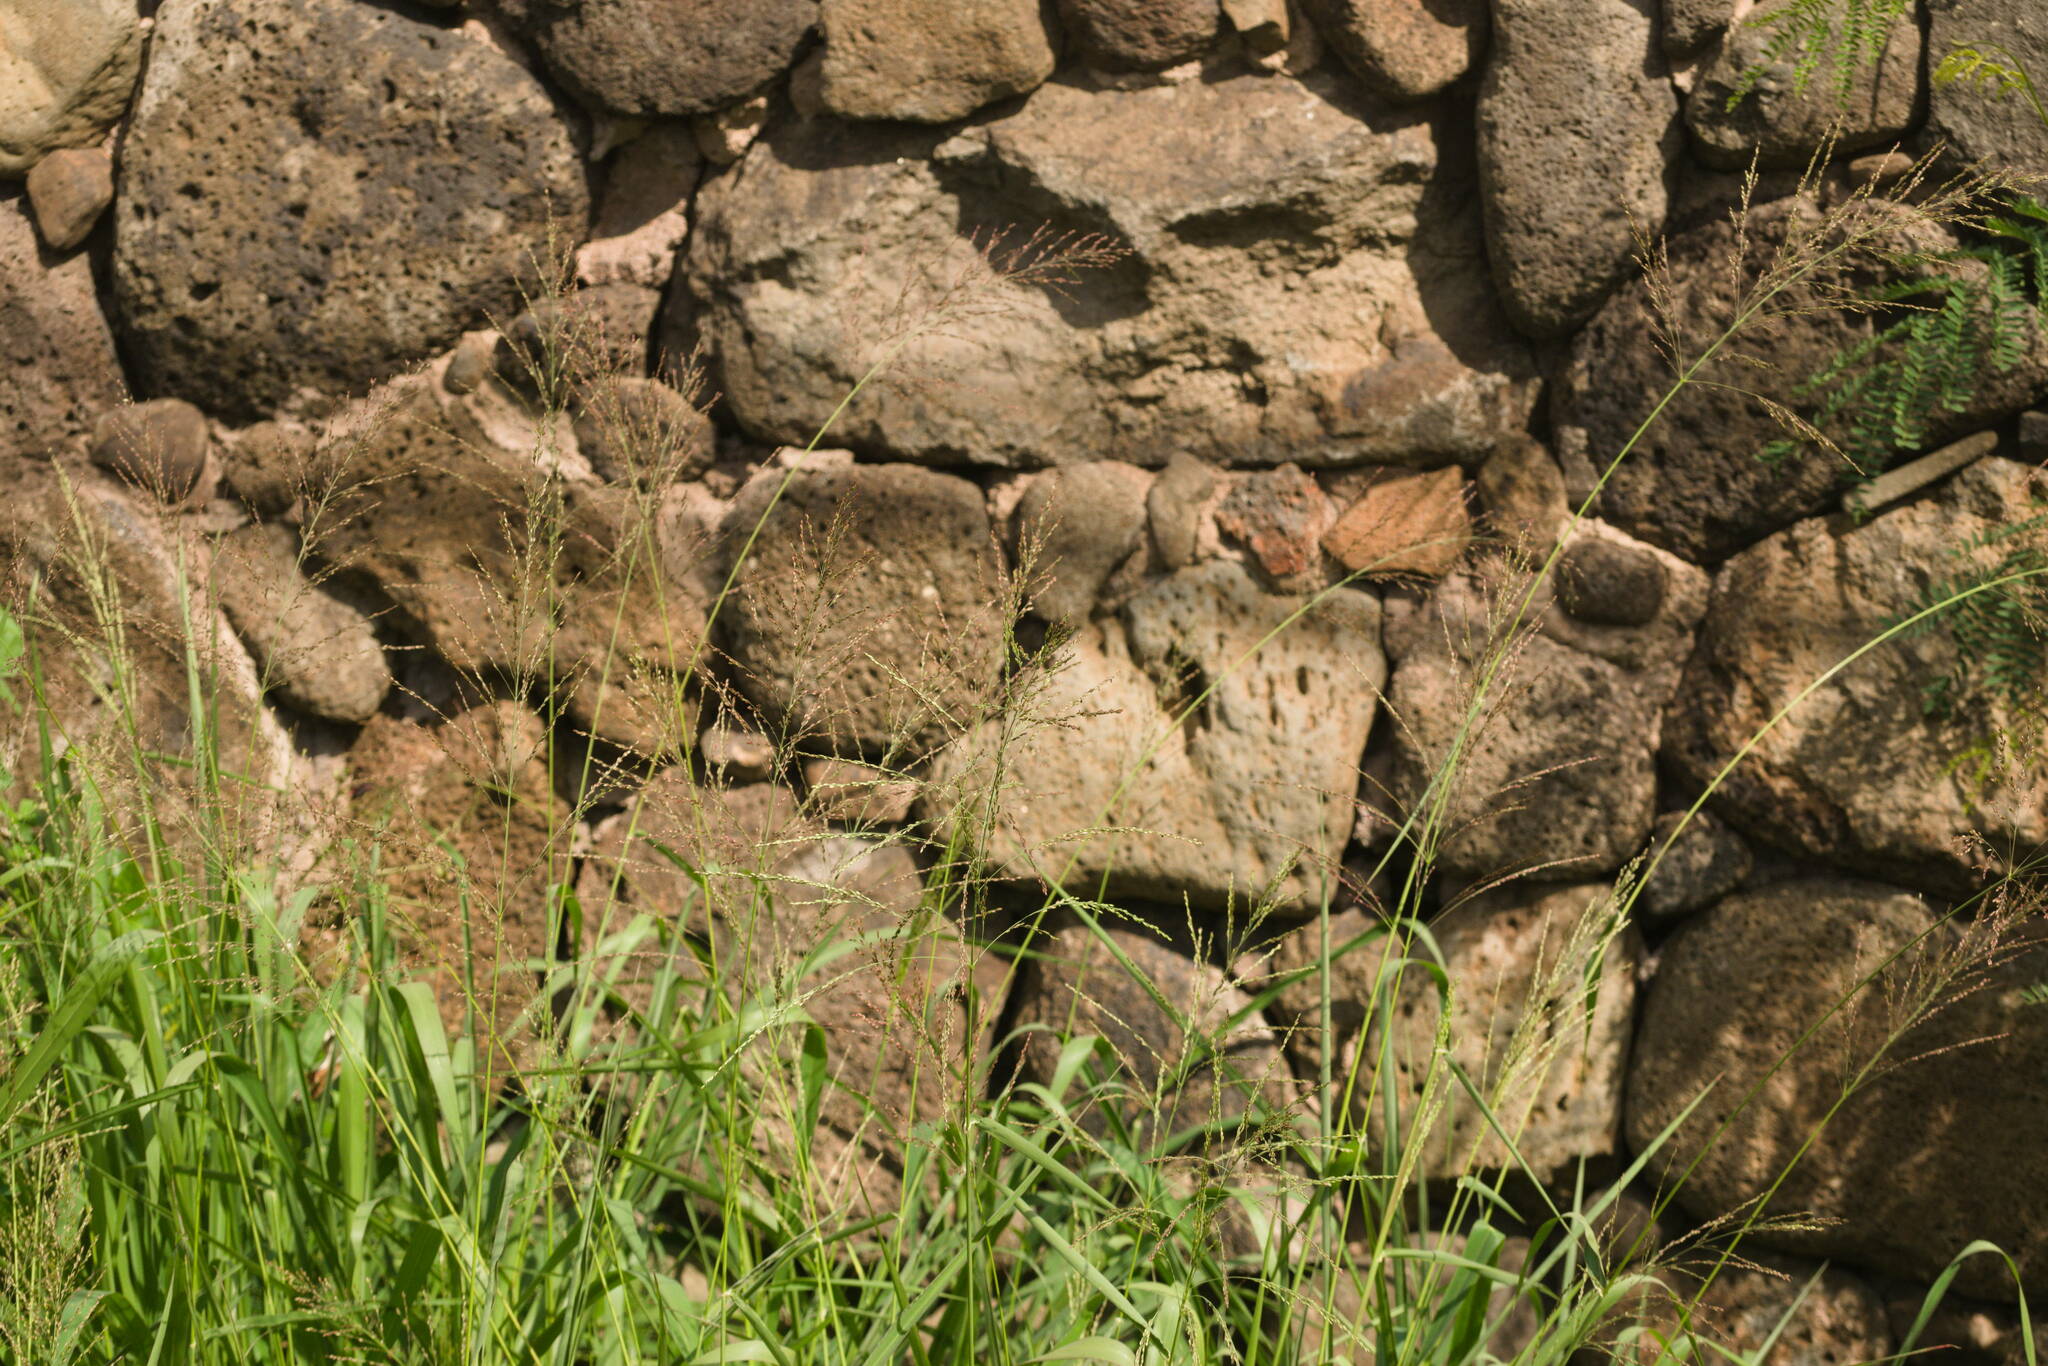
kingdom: Plantae
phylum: Tracheophyta
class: Liliopsida
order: Poales
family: Poaceae
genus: Megathyrsus
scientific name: Megathyrsus maximus
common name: Guineagrass
